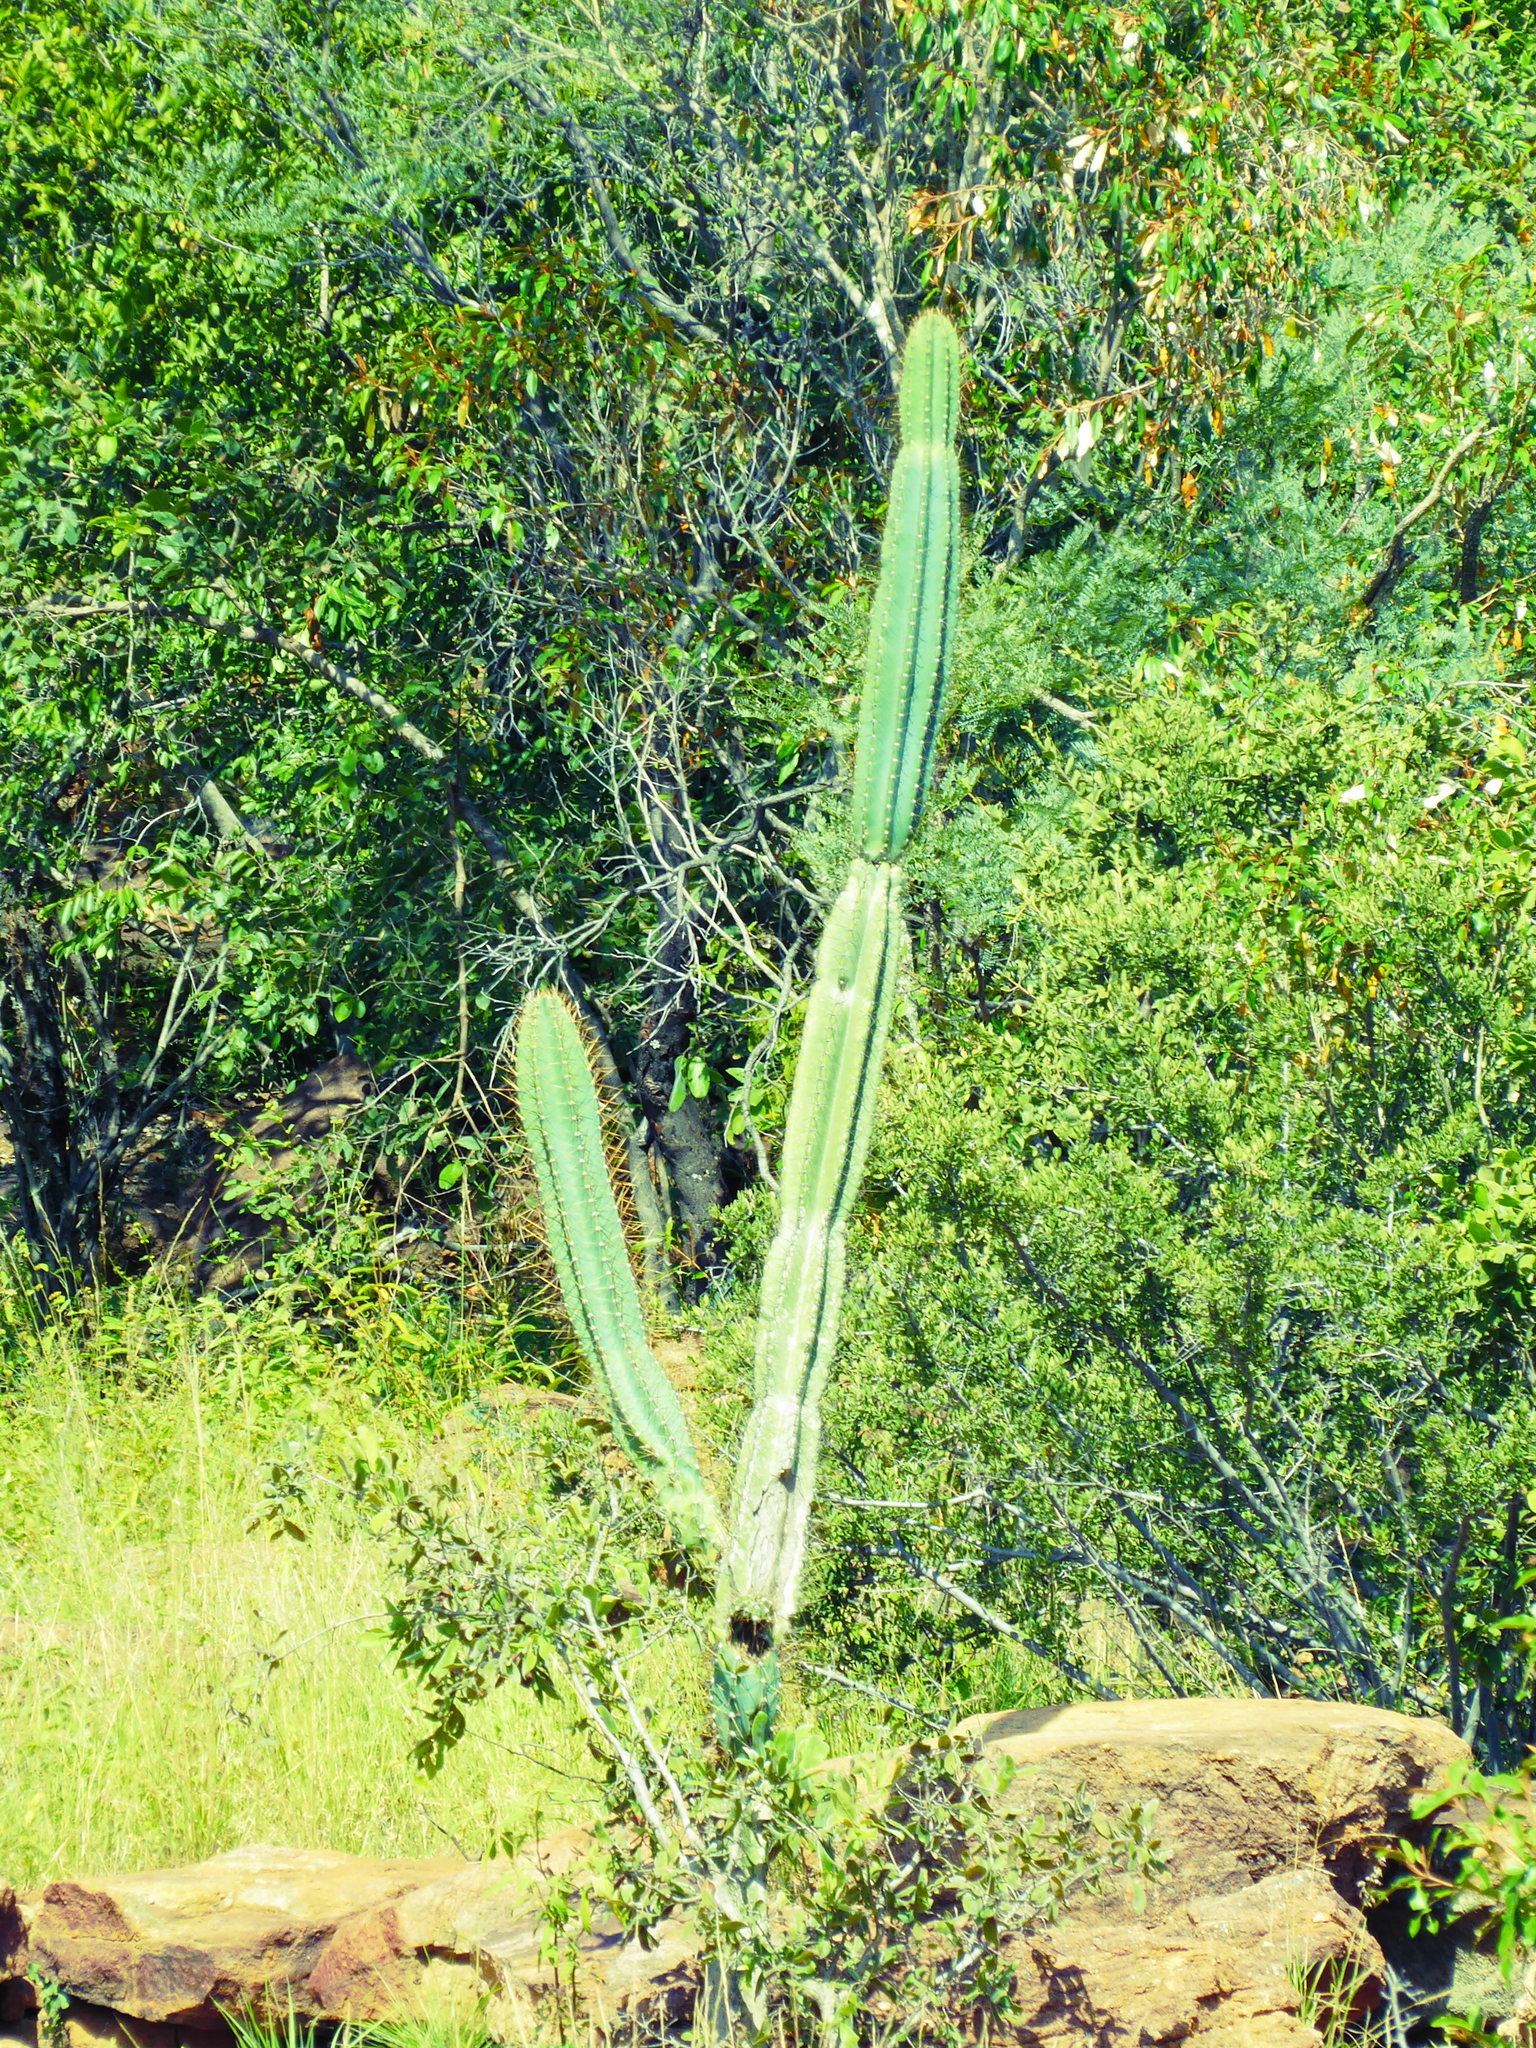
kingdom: Plantae
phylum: Tracheophyta
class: Magnoliopsida
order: Caryophyllales
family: Cactaceae
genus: Cereus
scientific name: Cereus jamacaru
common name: Queen-of-the-night
